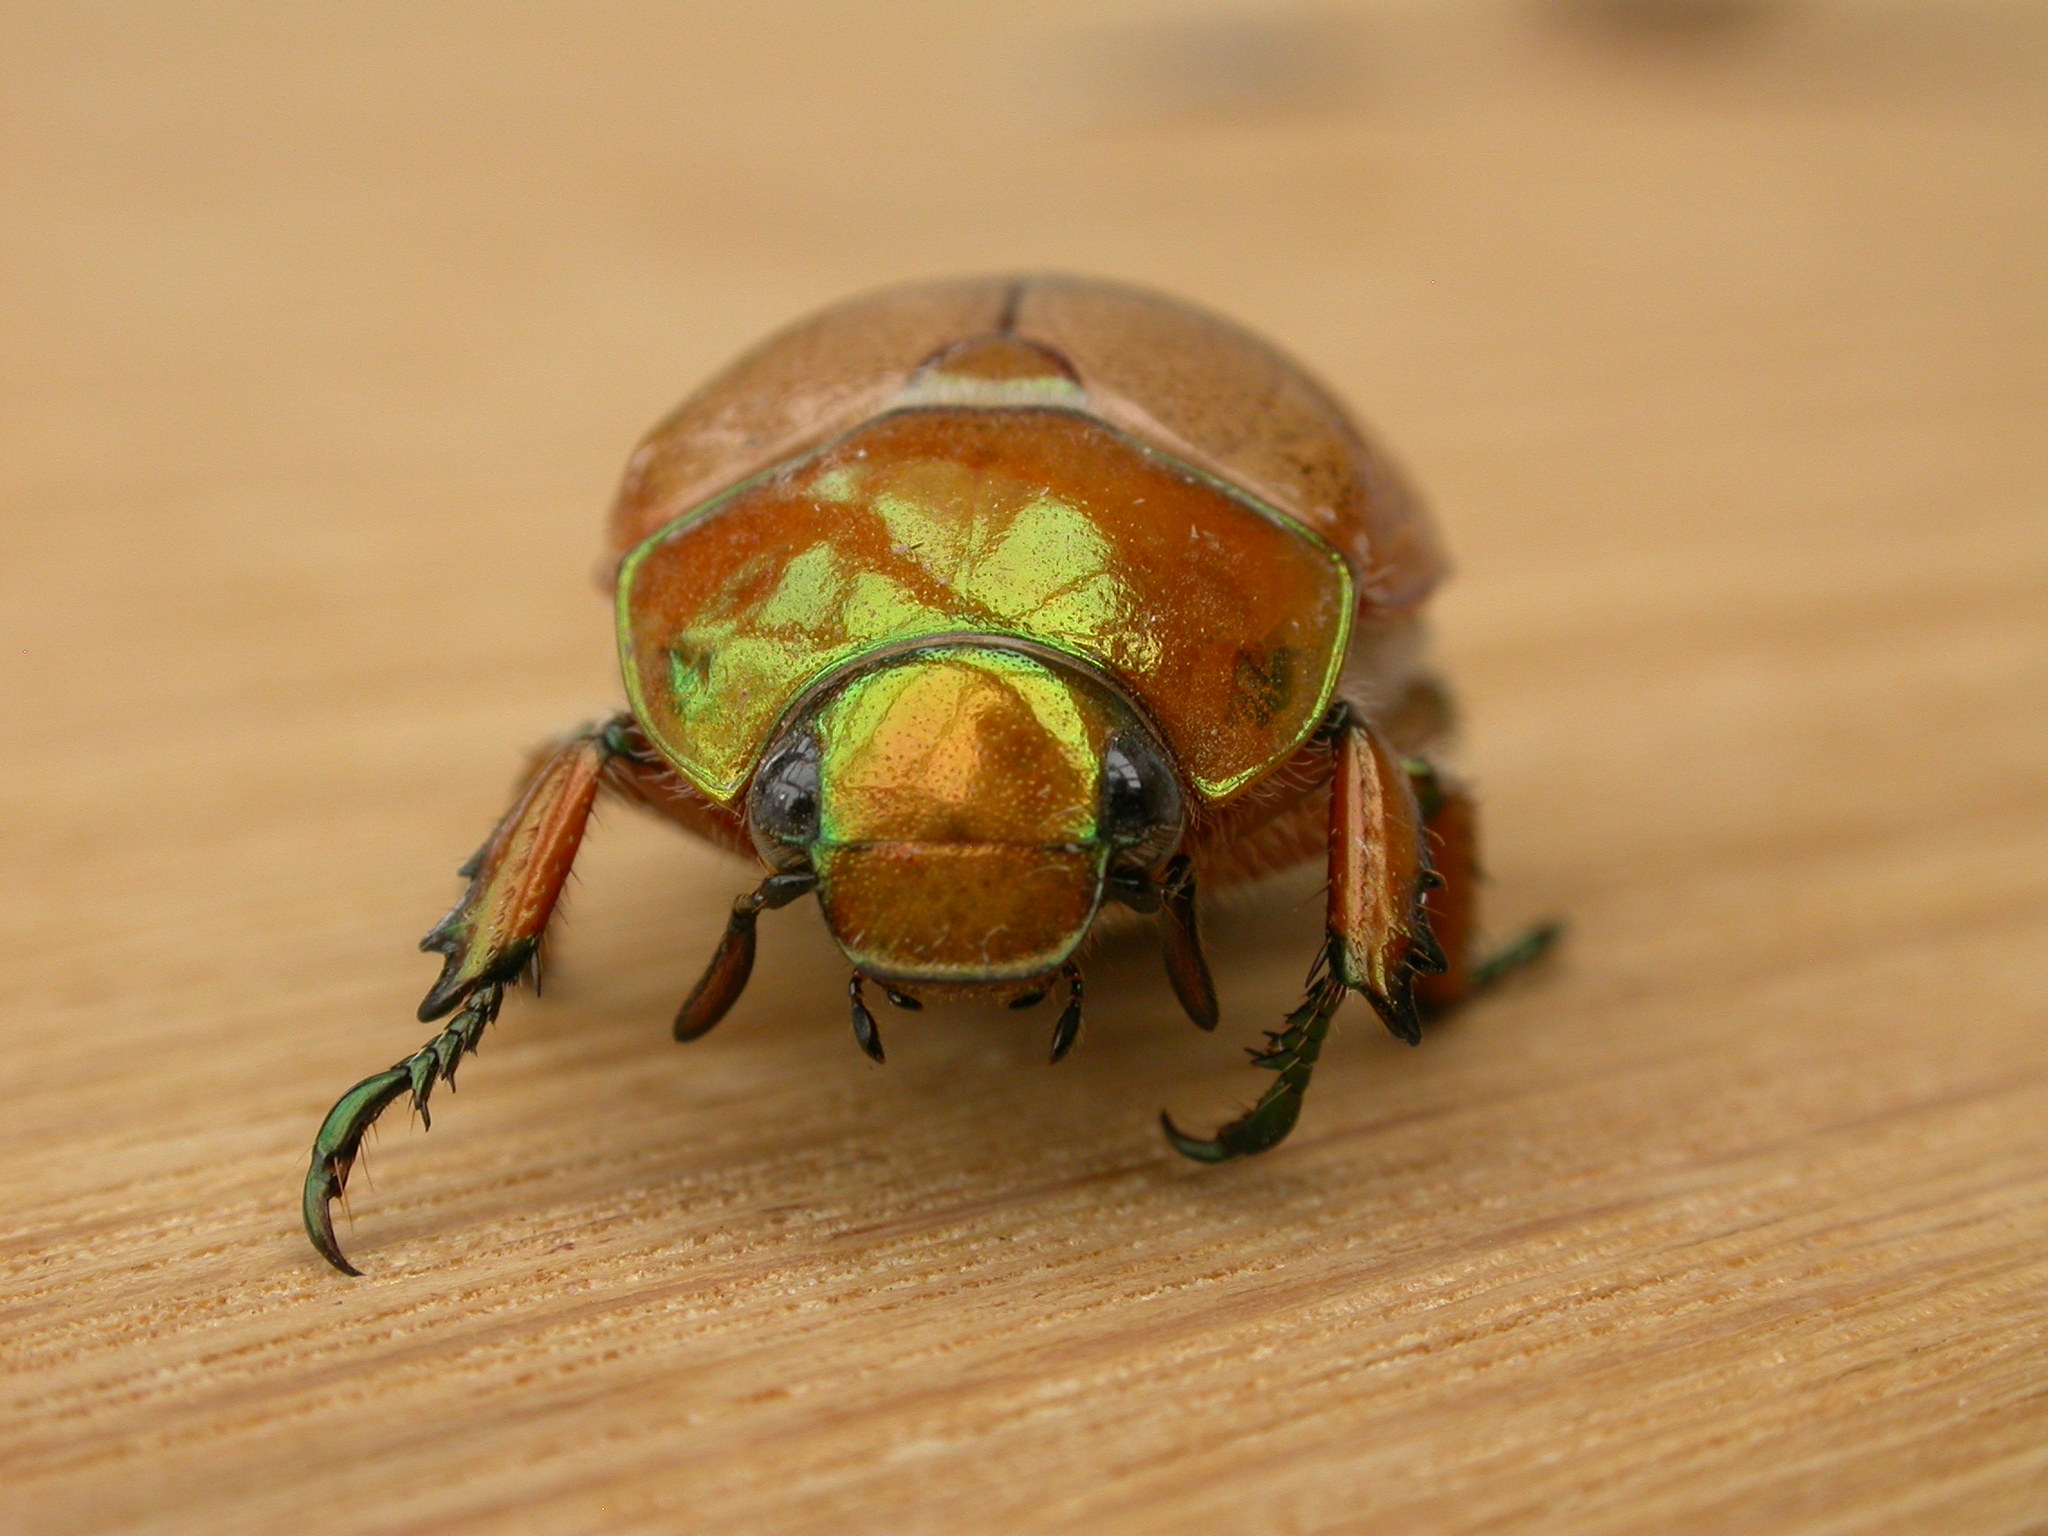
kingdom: Animalia
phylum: Arthropoda
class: Insecta
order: Coleoptera
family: Scarabaeidae
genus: Anoplognathus
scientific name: Anoplognathus brunnipennis
